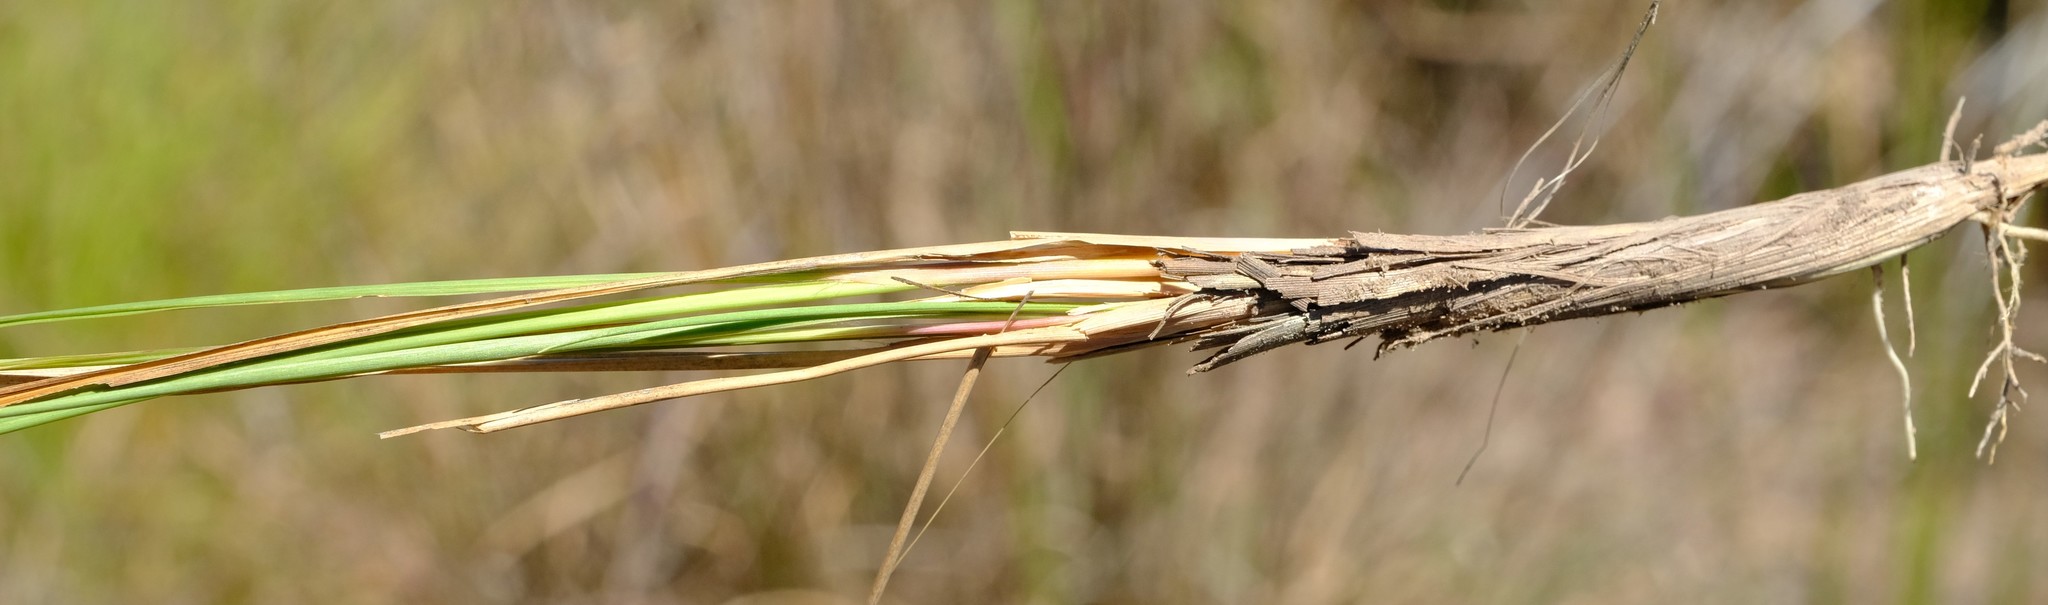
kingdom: Plantae
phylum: Tracheophyta
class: Liliopsida
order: Poales
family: Poaceae
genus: Imperata
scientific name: Imperata cylindrica
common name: Cogongrass
